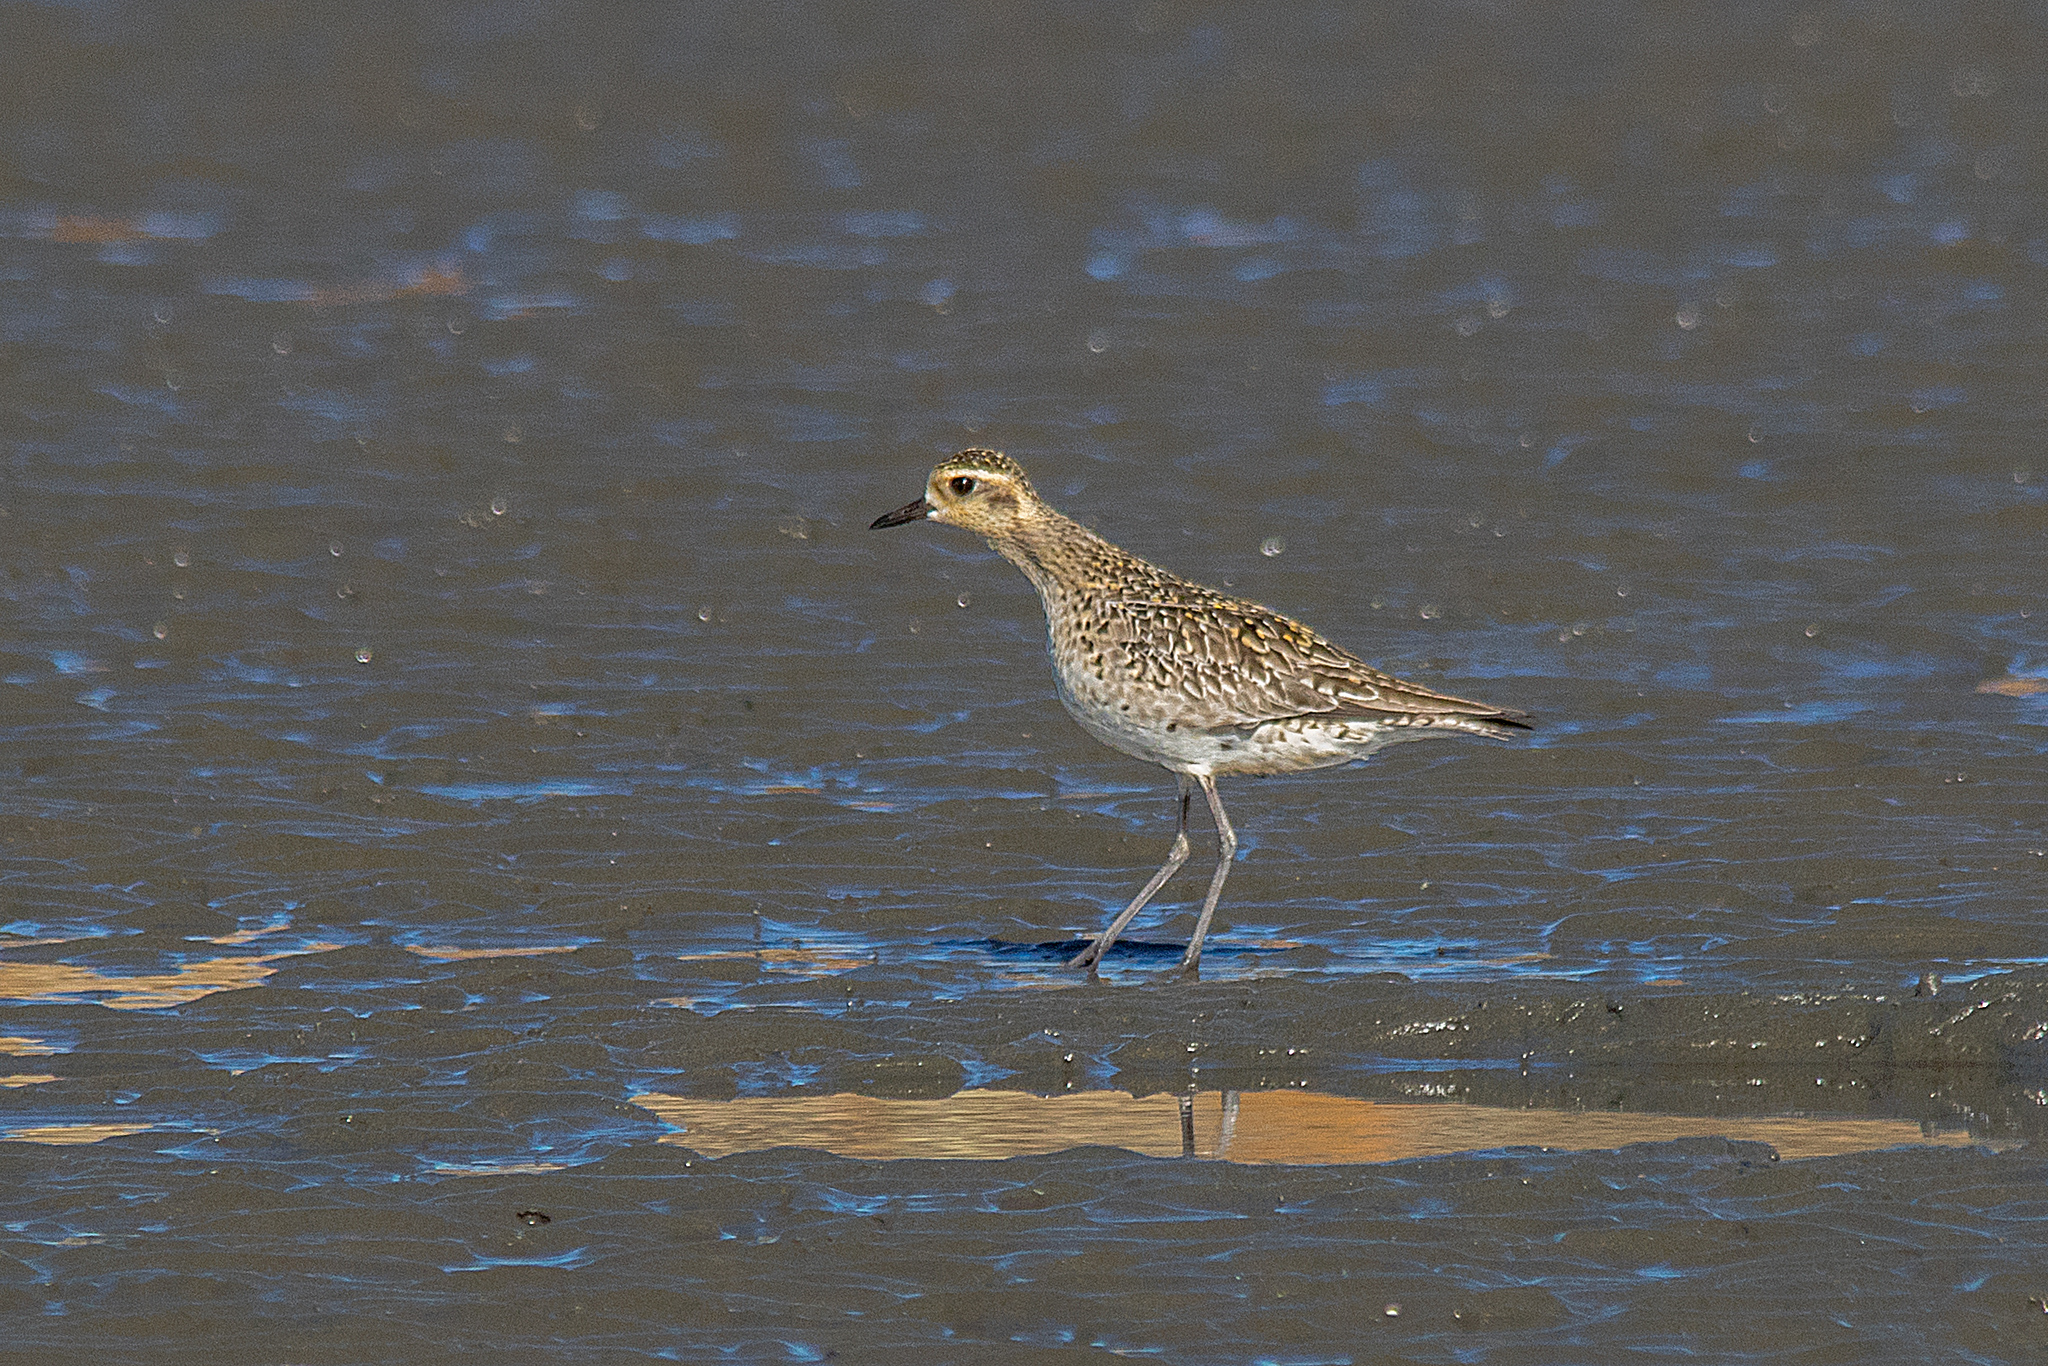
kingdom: Animalia
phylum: Chordata
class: Aves
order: Charadriiformes
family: Charadriidae
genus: Pluvialis
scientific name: Pluvialis fulva
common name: Pacific golden plover
